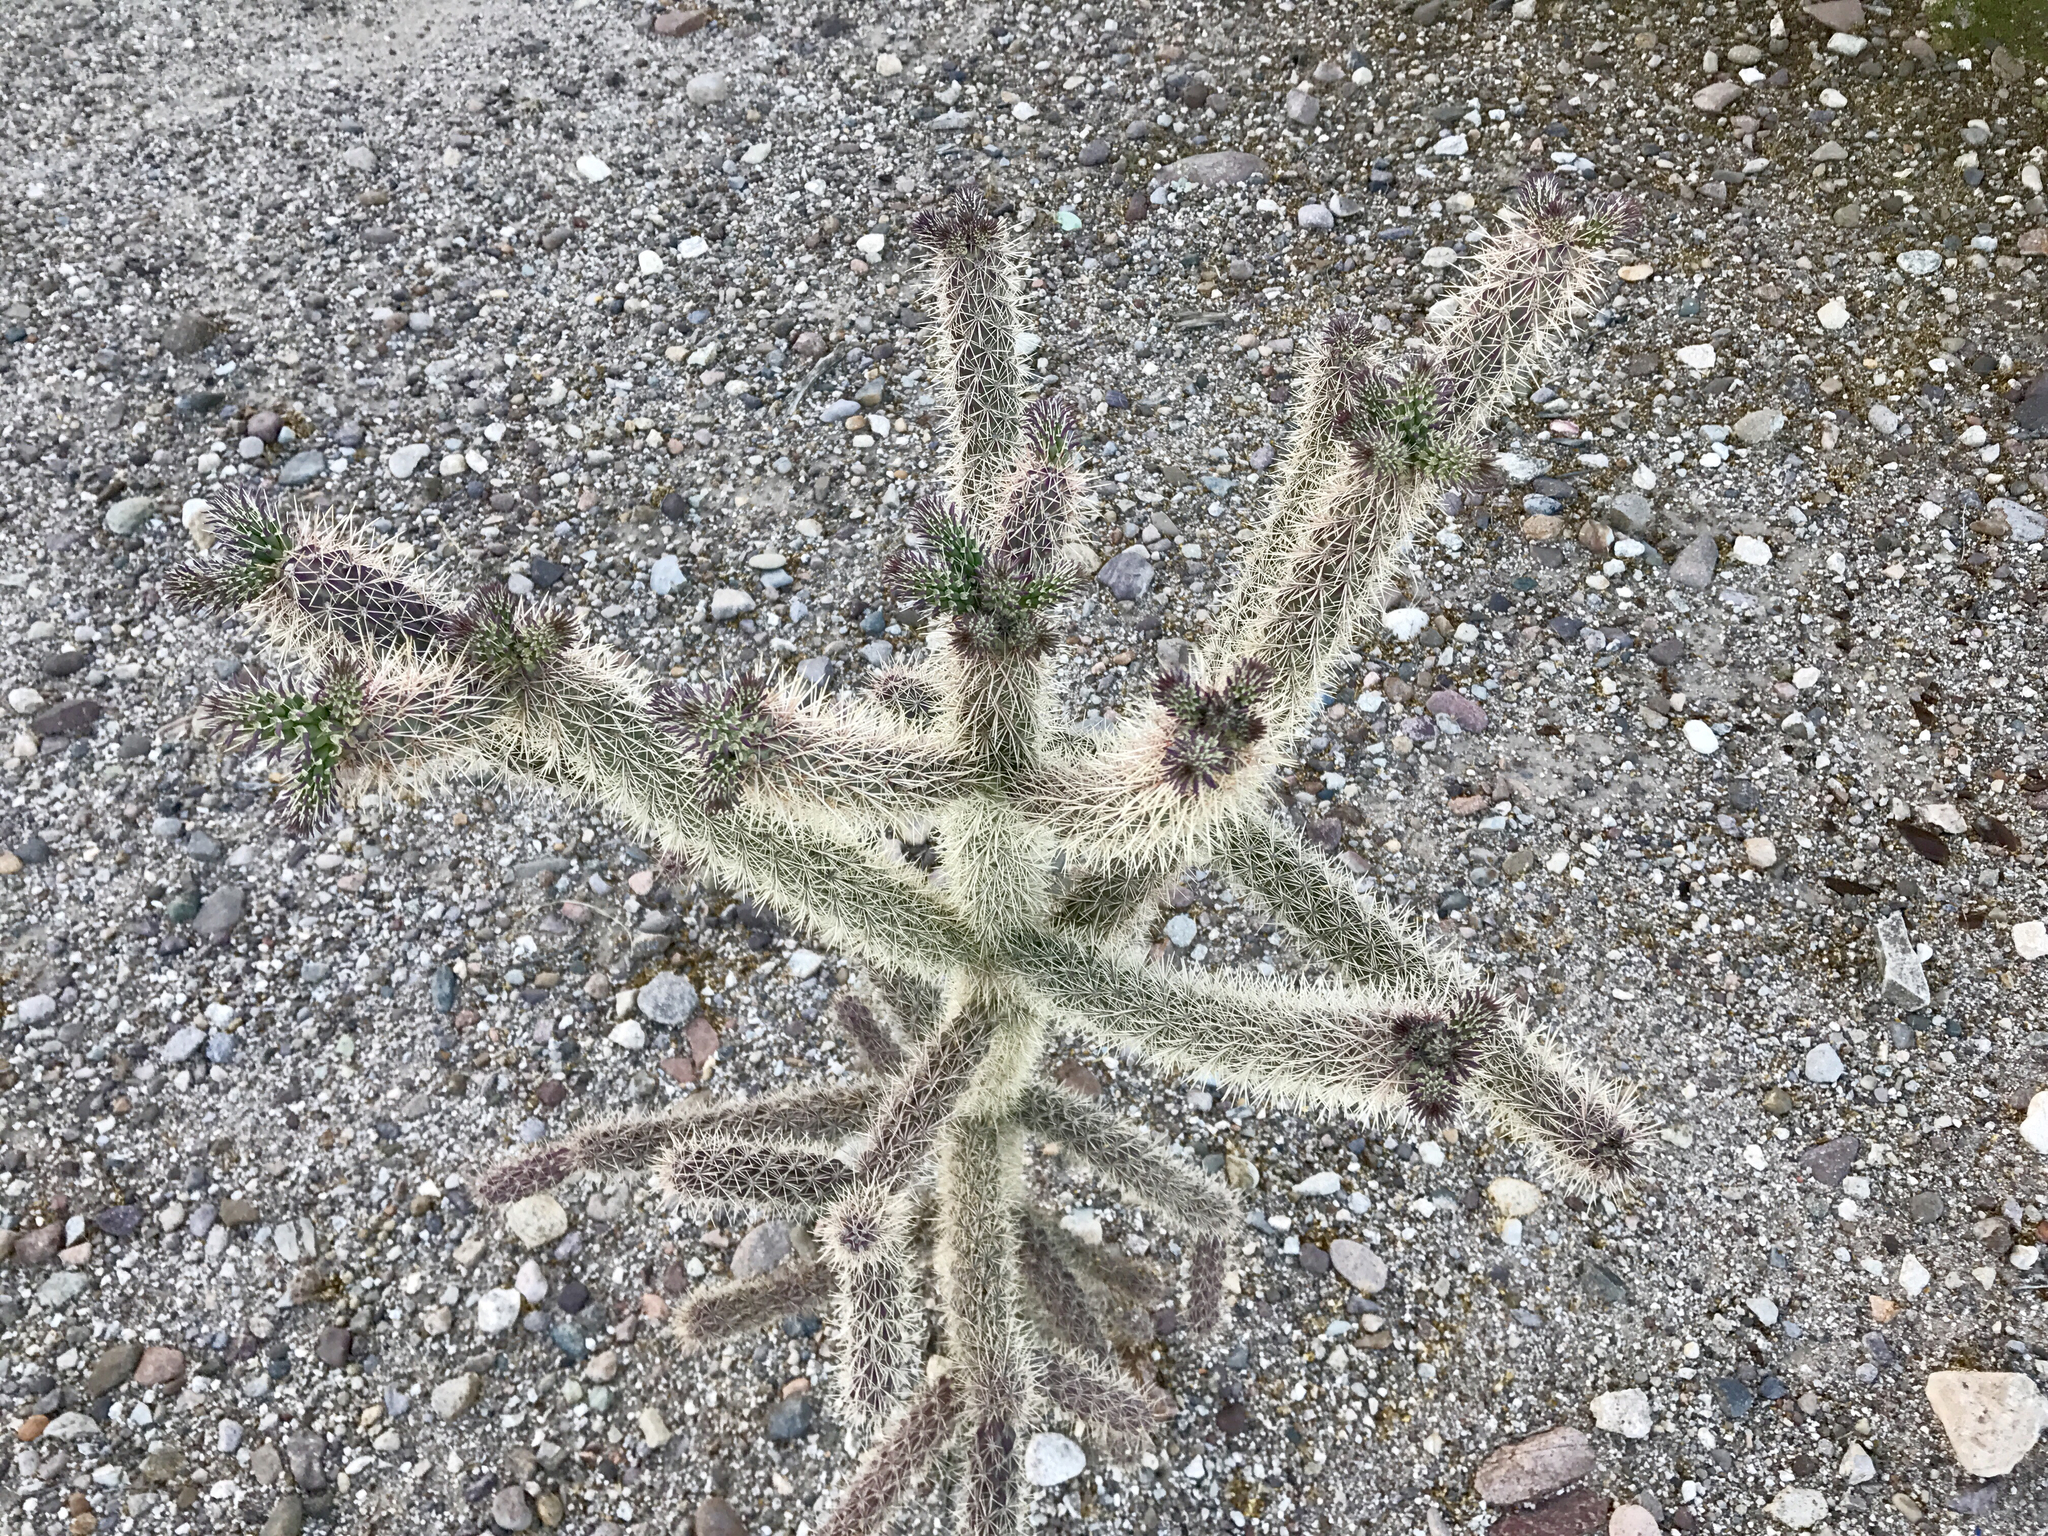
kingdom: Plantae
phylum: Tracheophyta
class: Magnoliopsida
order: Caryophyllales
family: Cactaceae
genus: Cylindropuntia
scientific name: Cylindropuntia imbricata
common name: Candelabrum cactus
